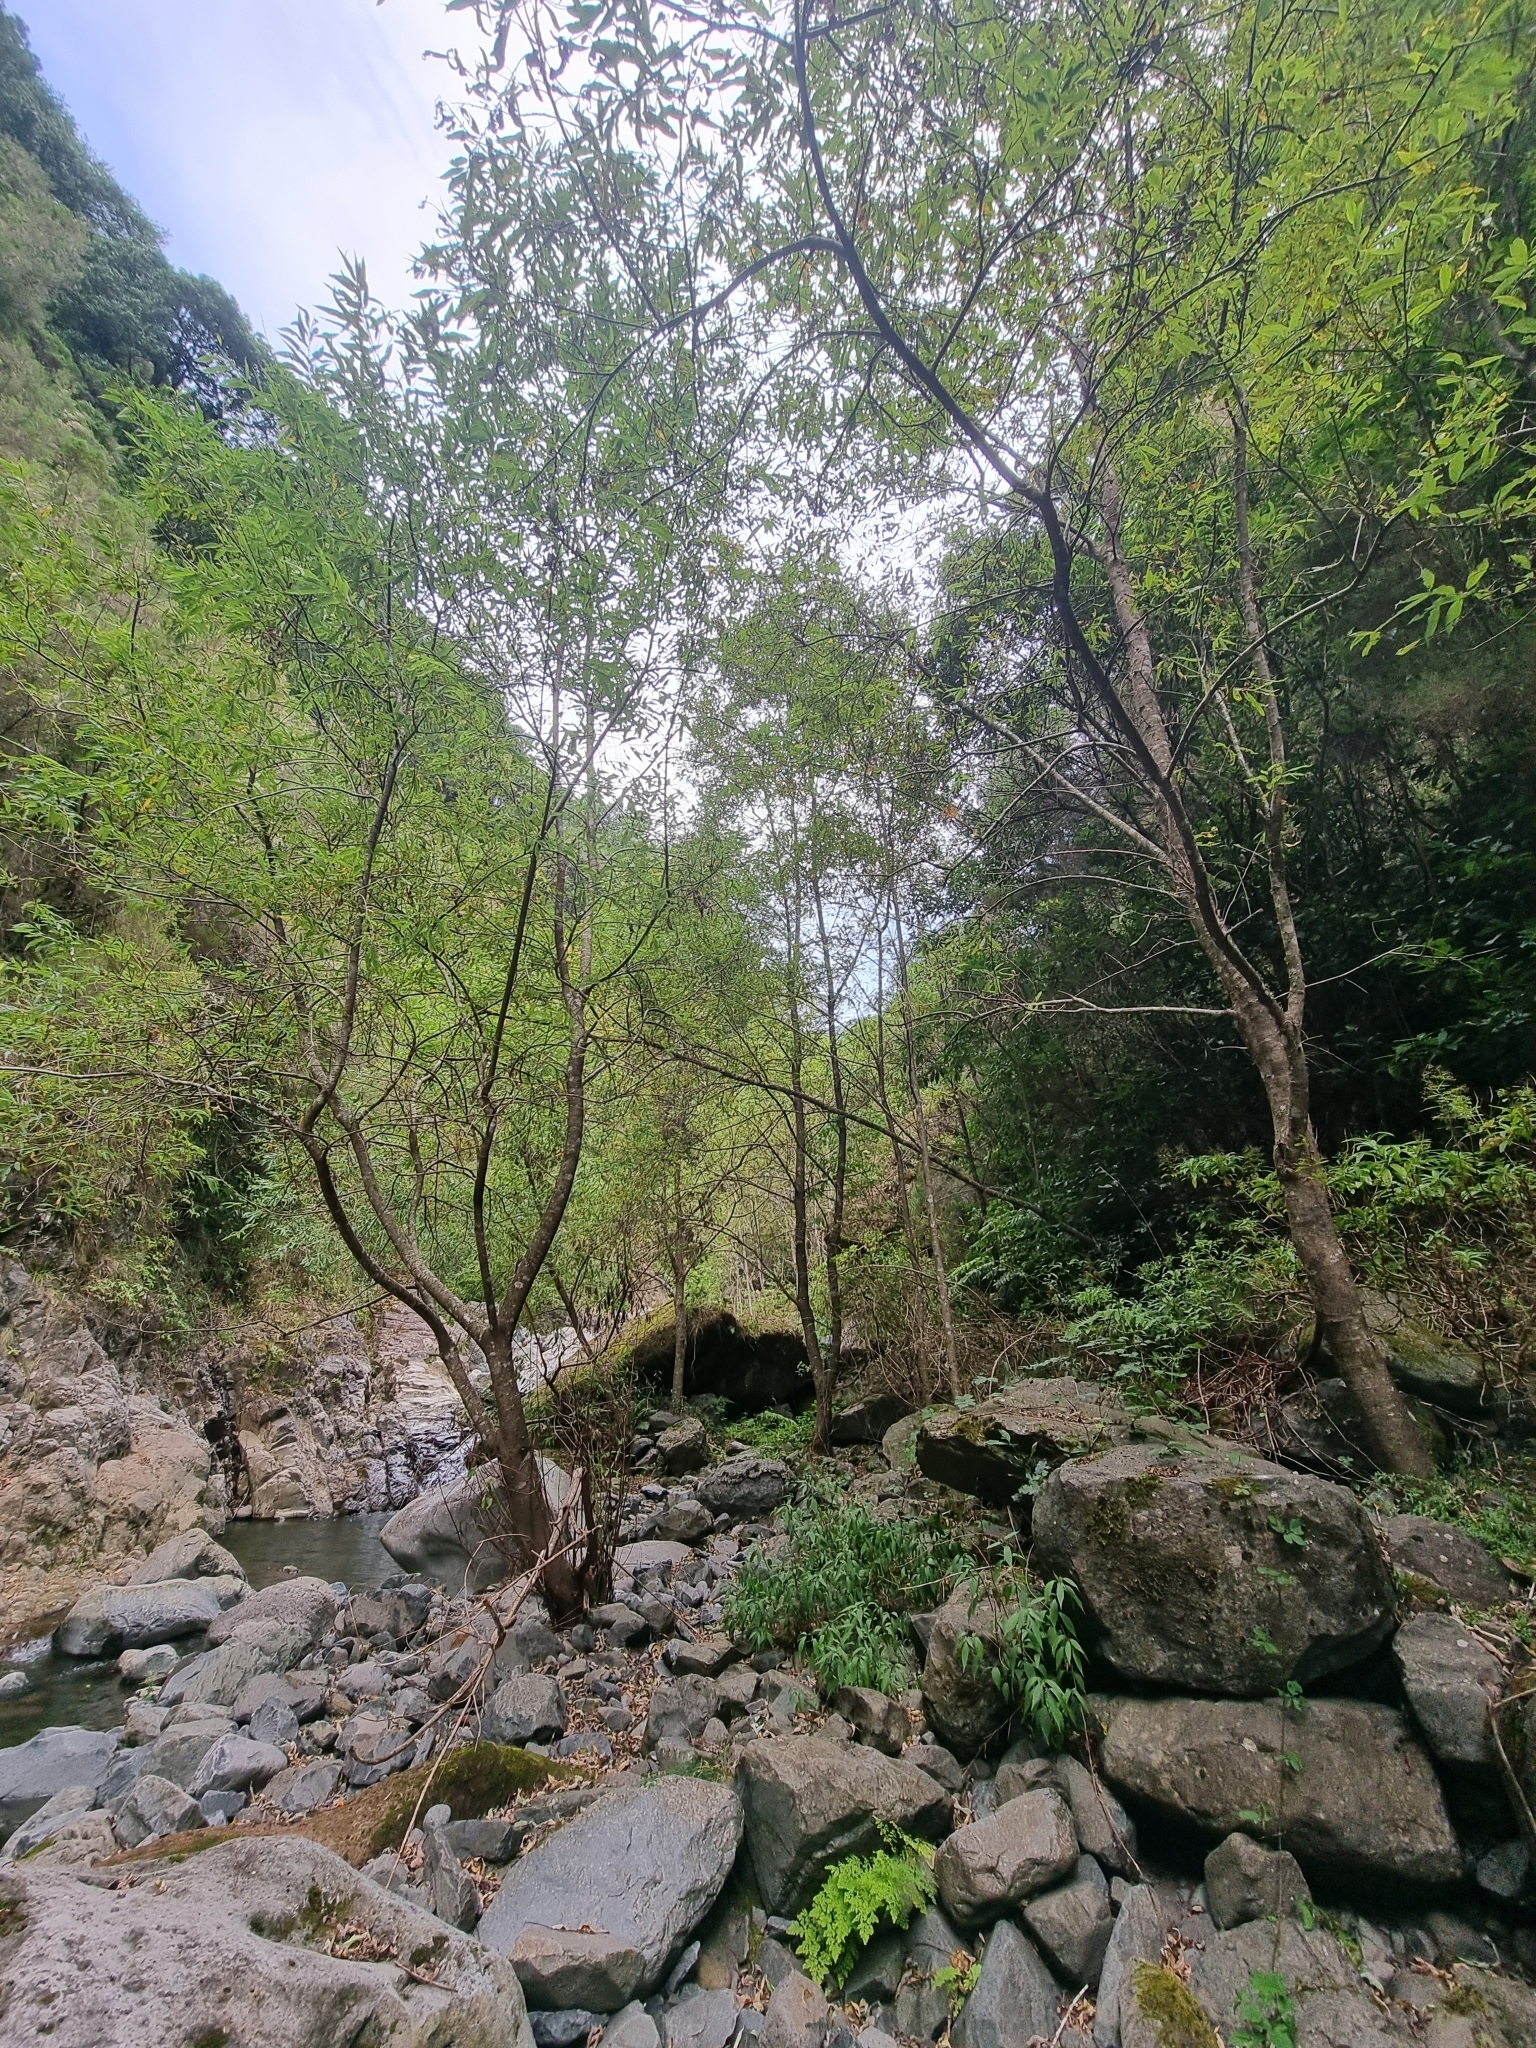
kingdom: Plantae
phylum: Tracheophyta
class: Magnoliopsida
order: Malpighiales
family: Salicaceae
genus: Salix
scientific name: Salix canariensis
